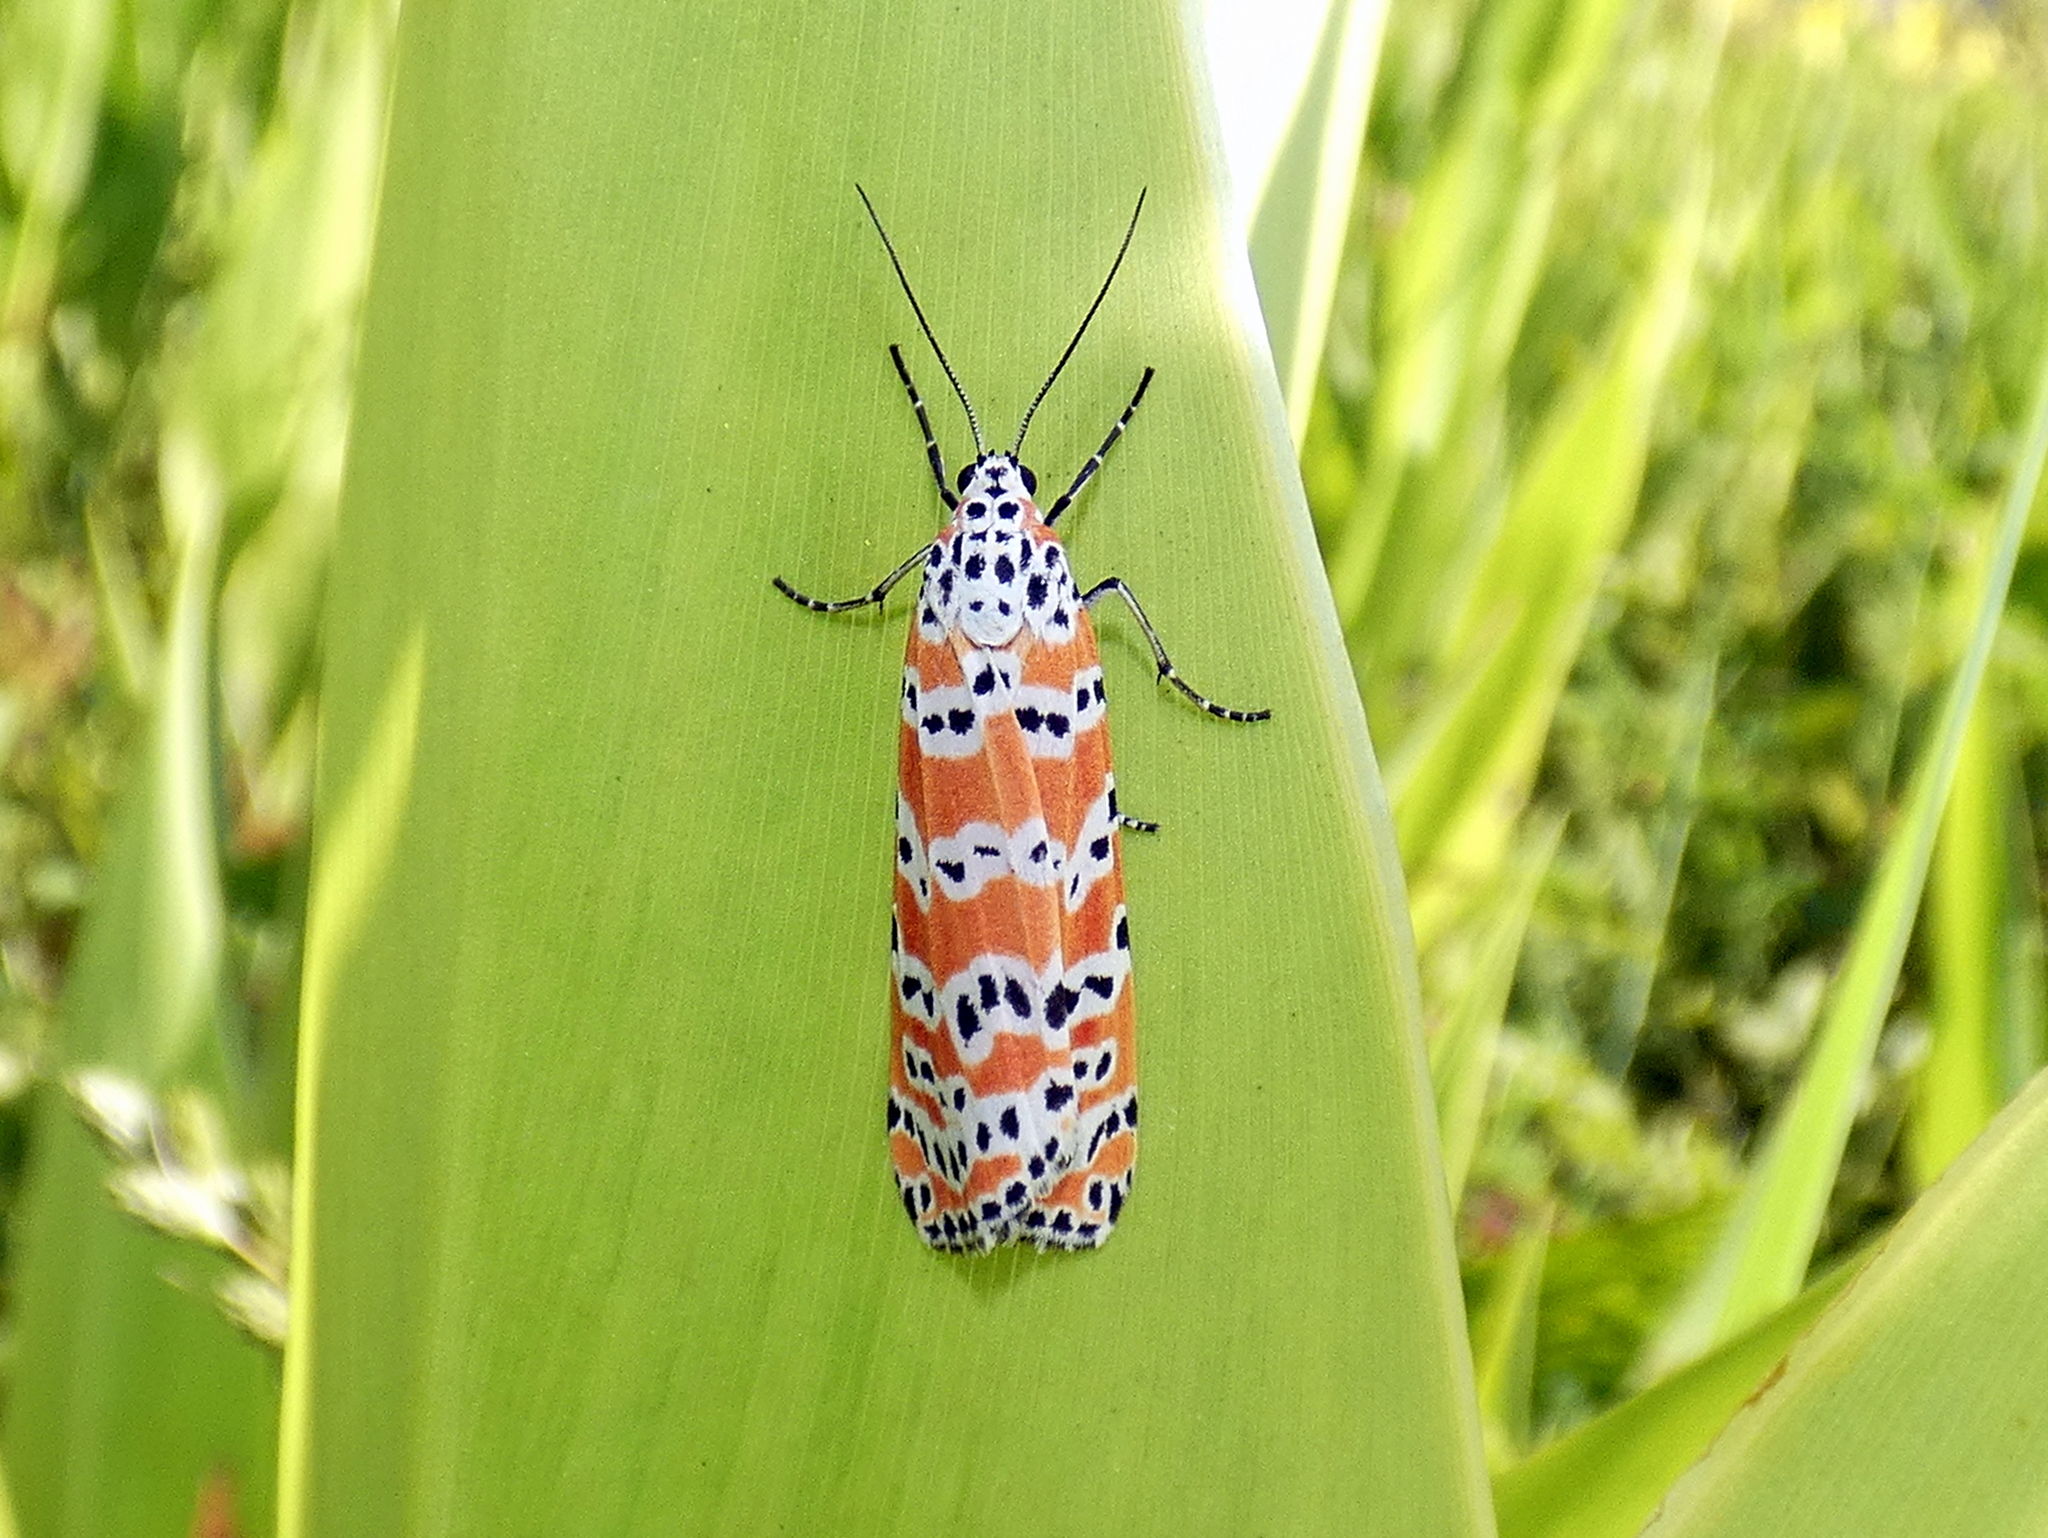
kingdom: Animalia
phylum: Arthropoda
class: Insecta
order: Lepidoptera
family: Erebidae
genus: Utetheisa
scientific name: Utetheisa ornatrix
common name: Beautiful utetheisa
